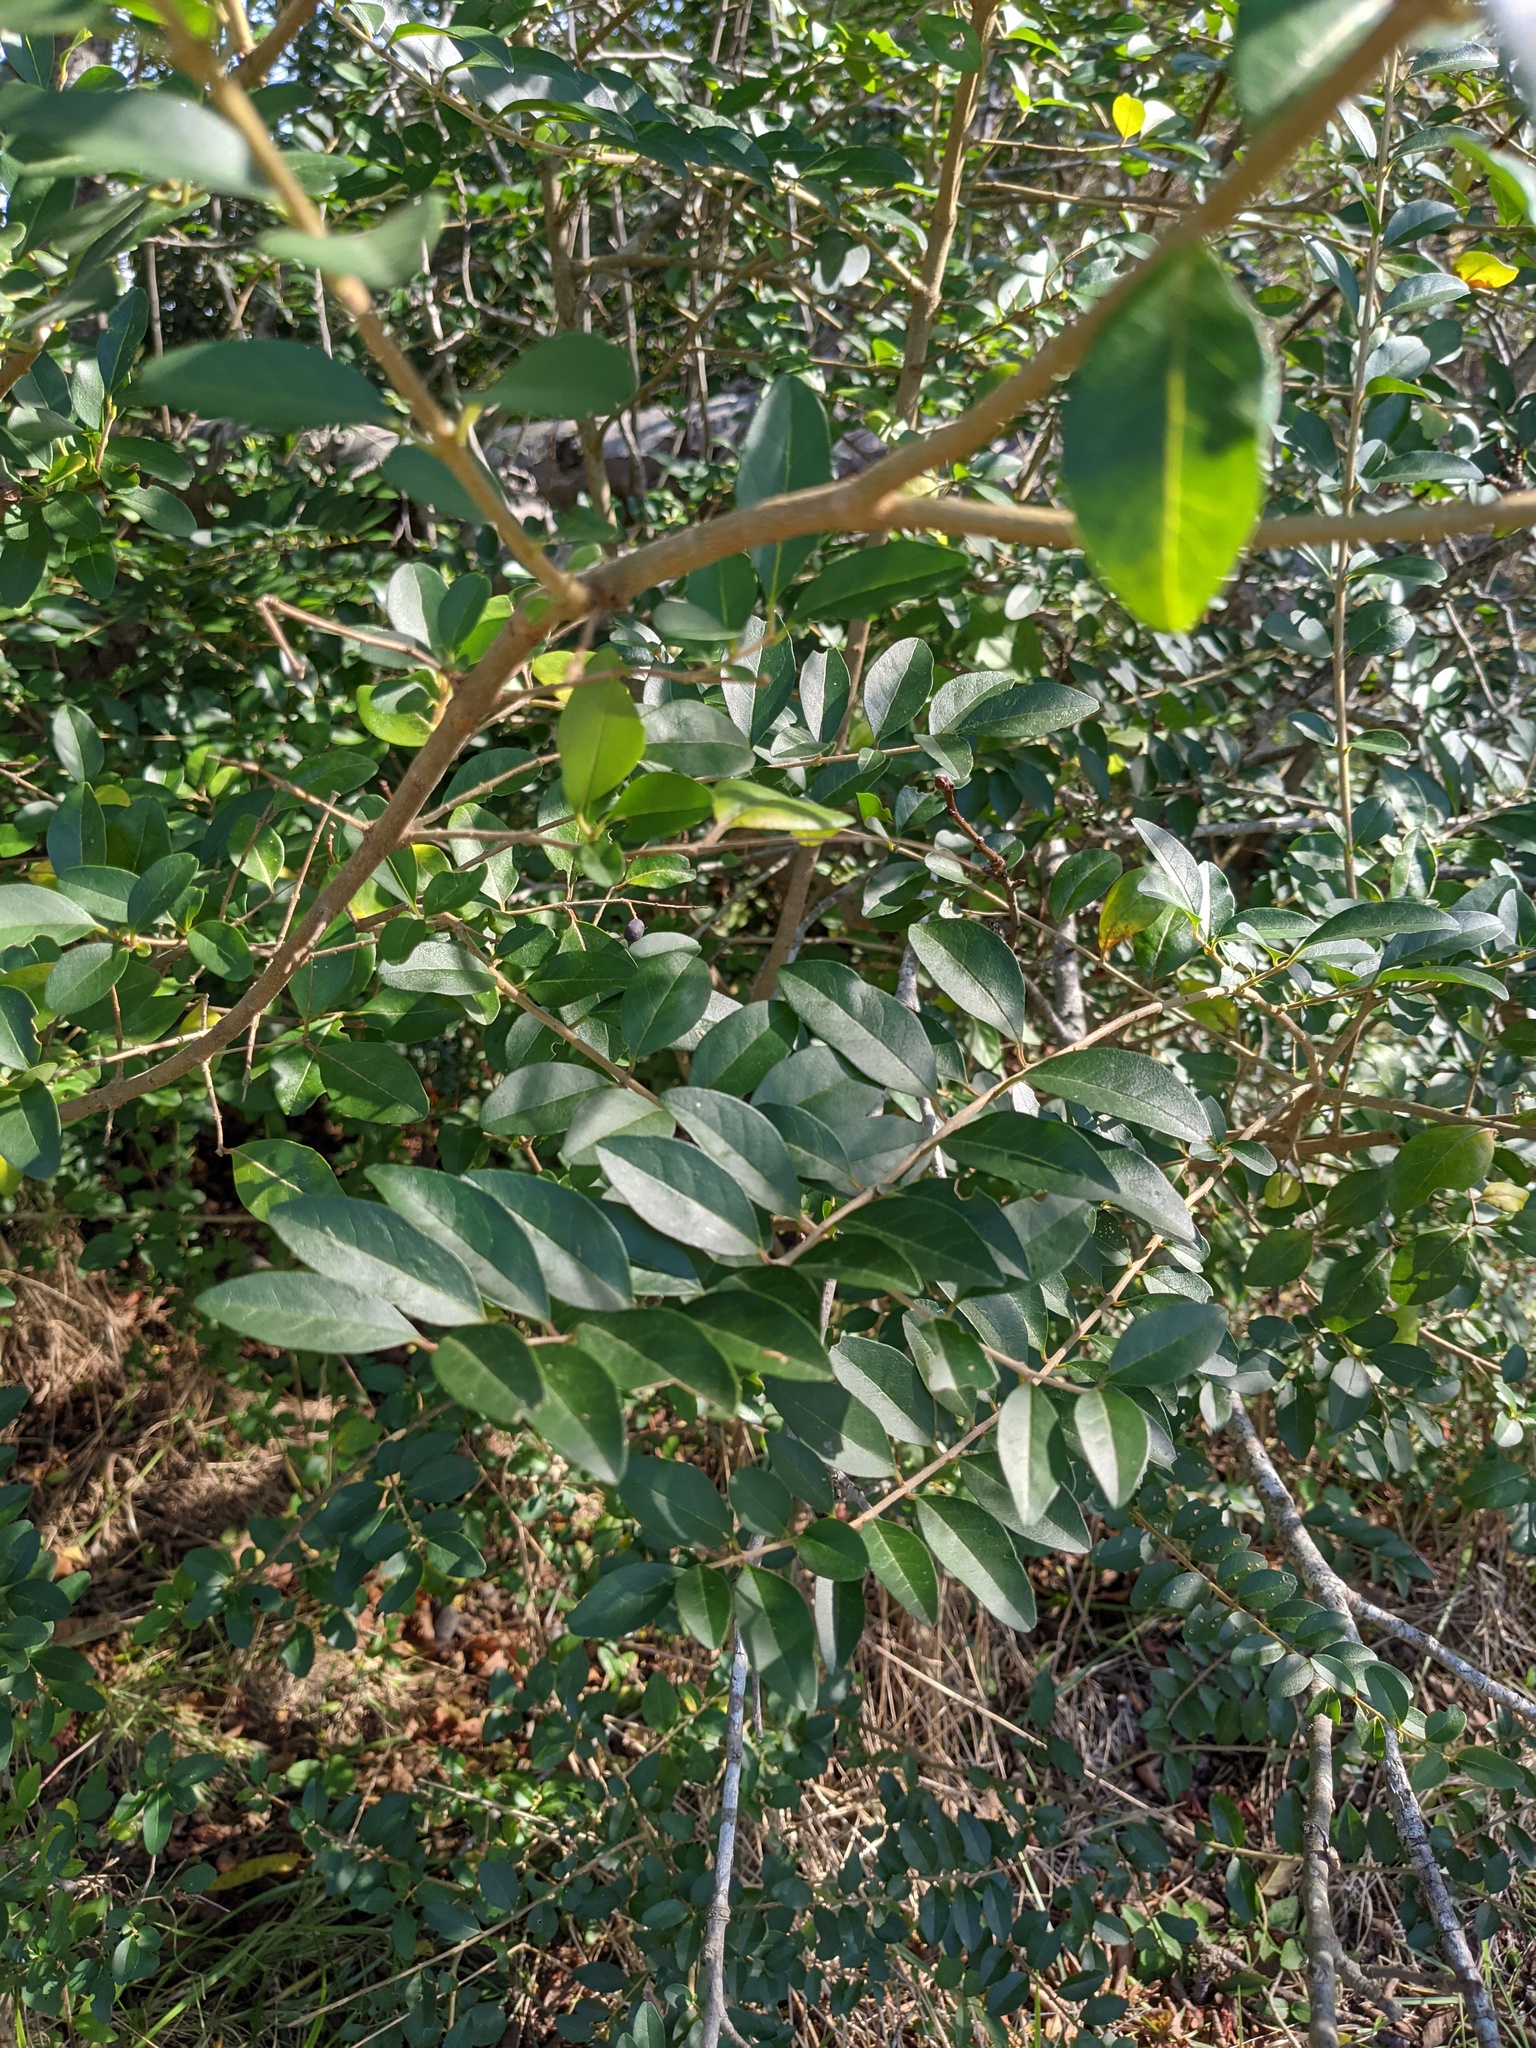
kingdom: Plantae
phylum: Tracheophyta
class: Magnoliopsida
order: Lamiales
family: Oleaceae
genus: Ligustrum
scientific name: Ligustrum sinense
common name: Chinese privet
